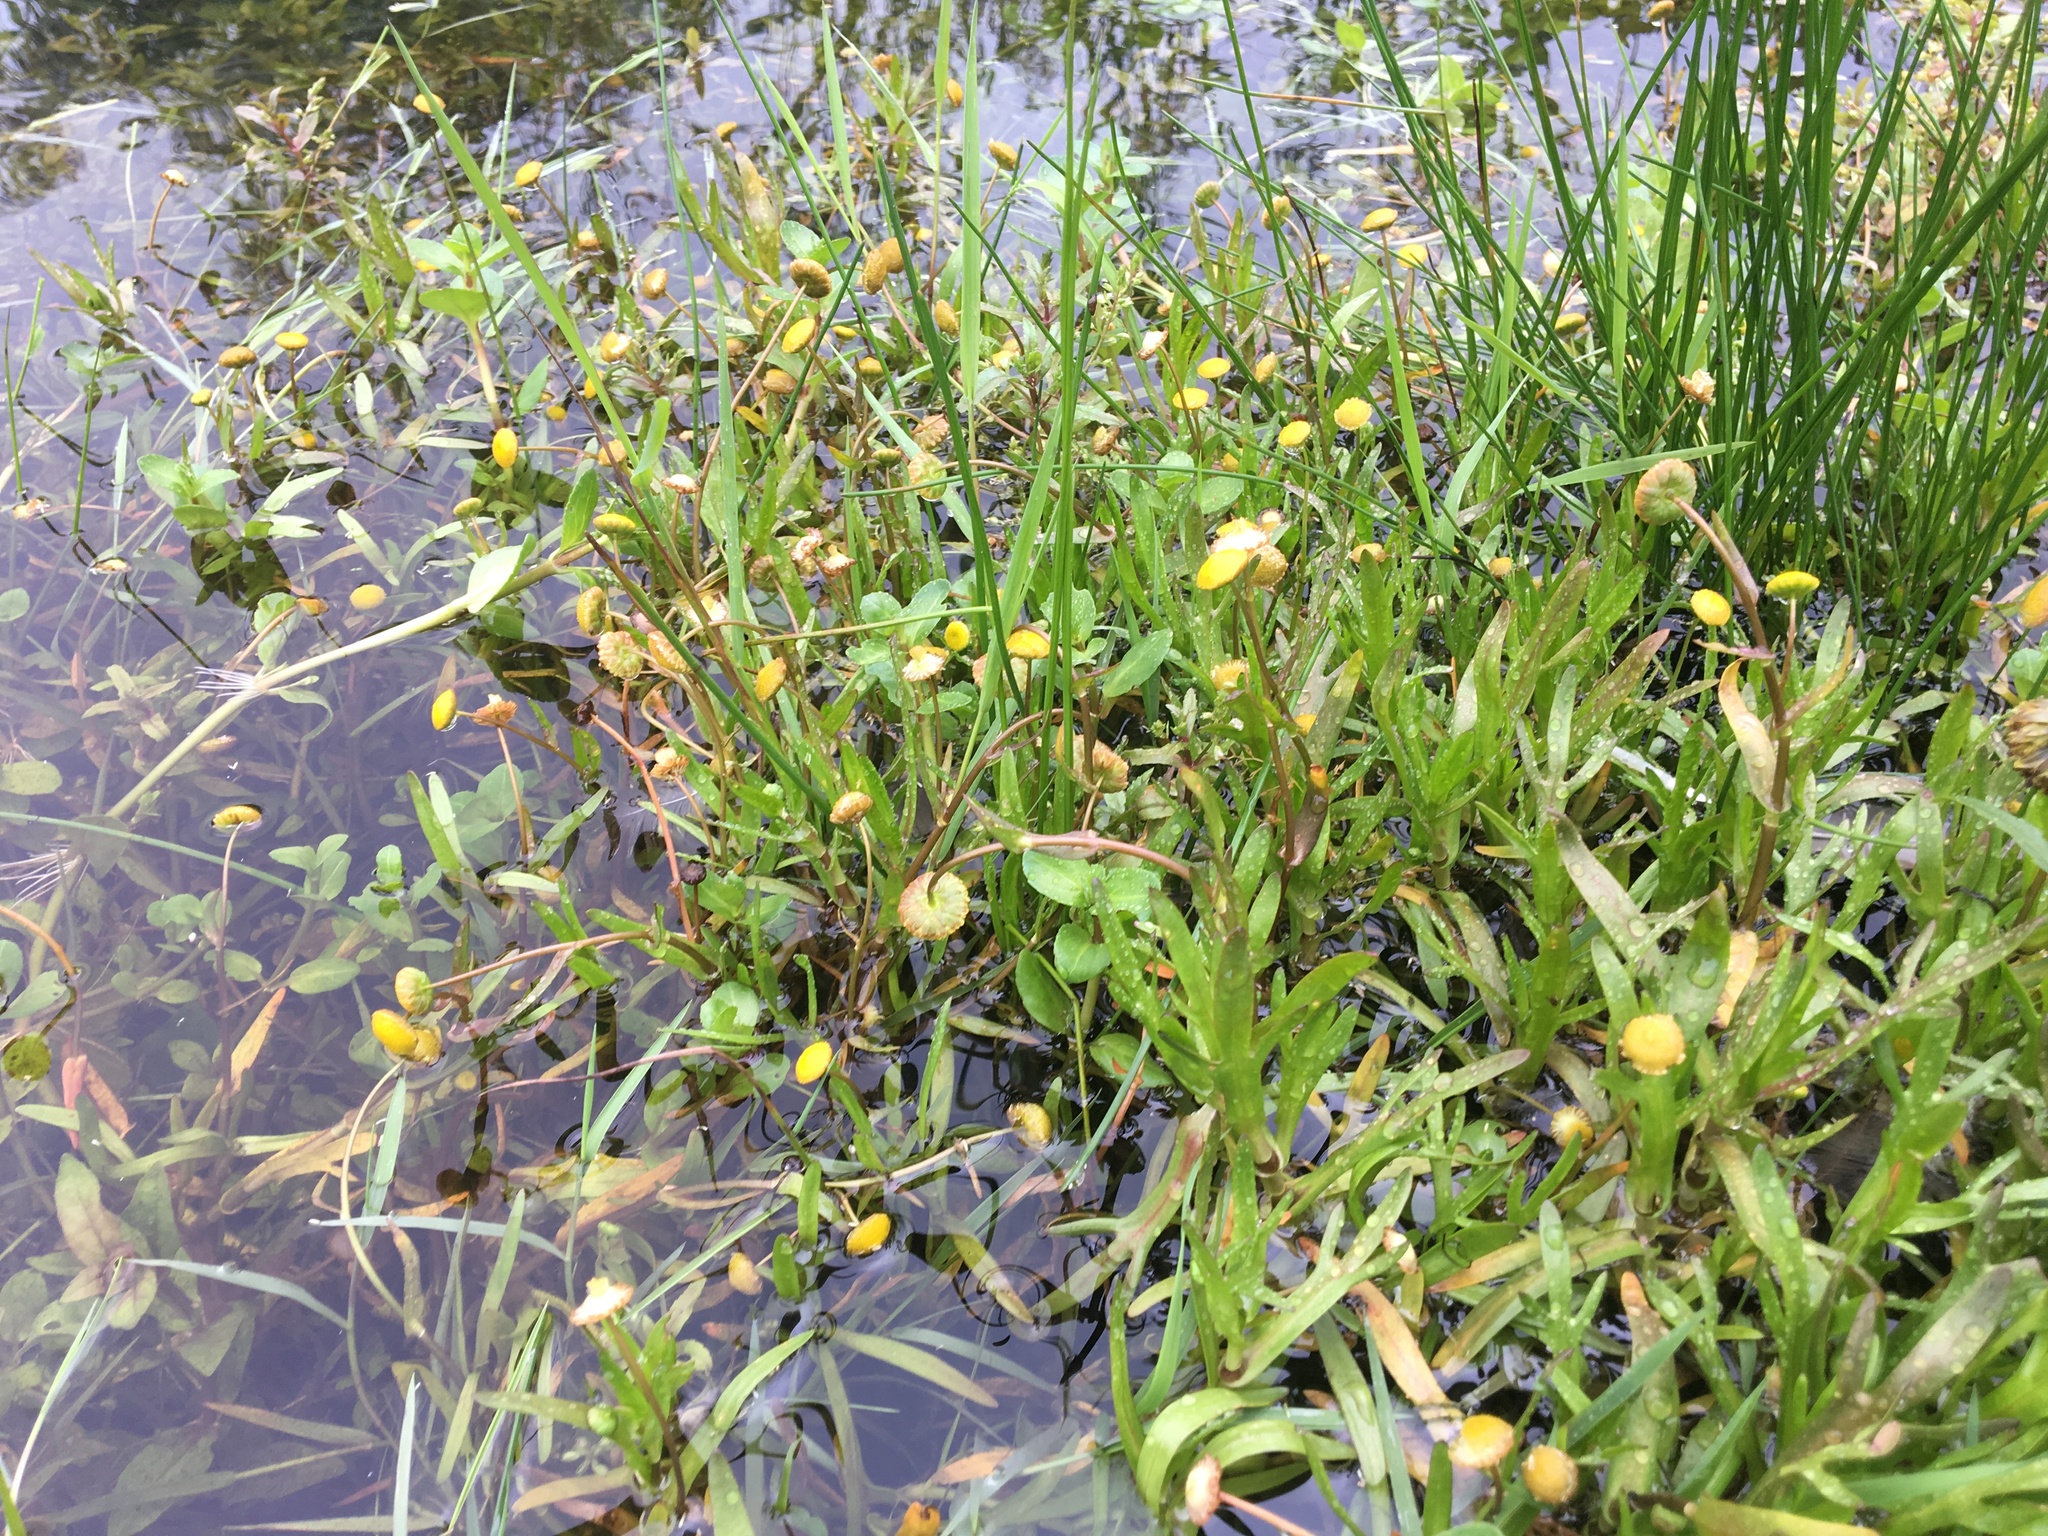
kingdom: Plantae
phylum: Tracheophyta
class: Magnoliopsida
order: Asterales
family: Asteraceae
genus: Cotula
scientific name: Cotula coronopifolia
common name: Buttonweed
